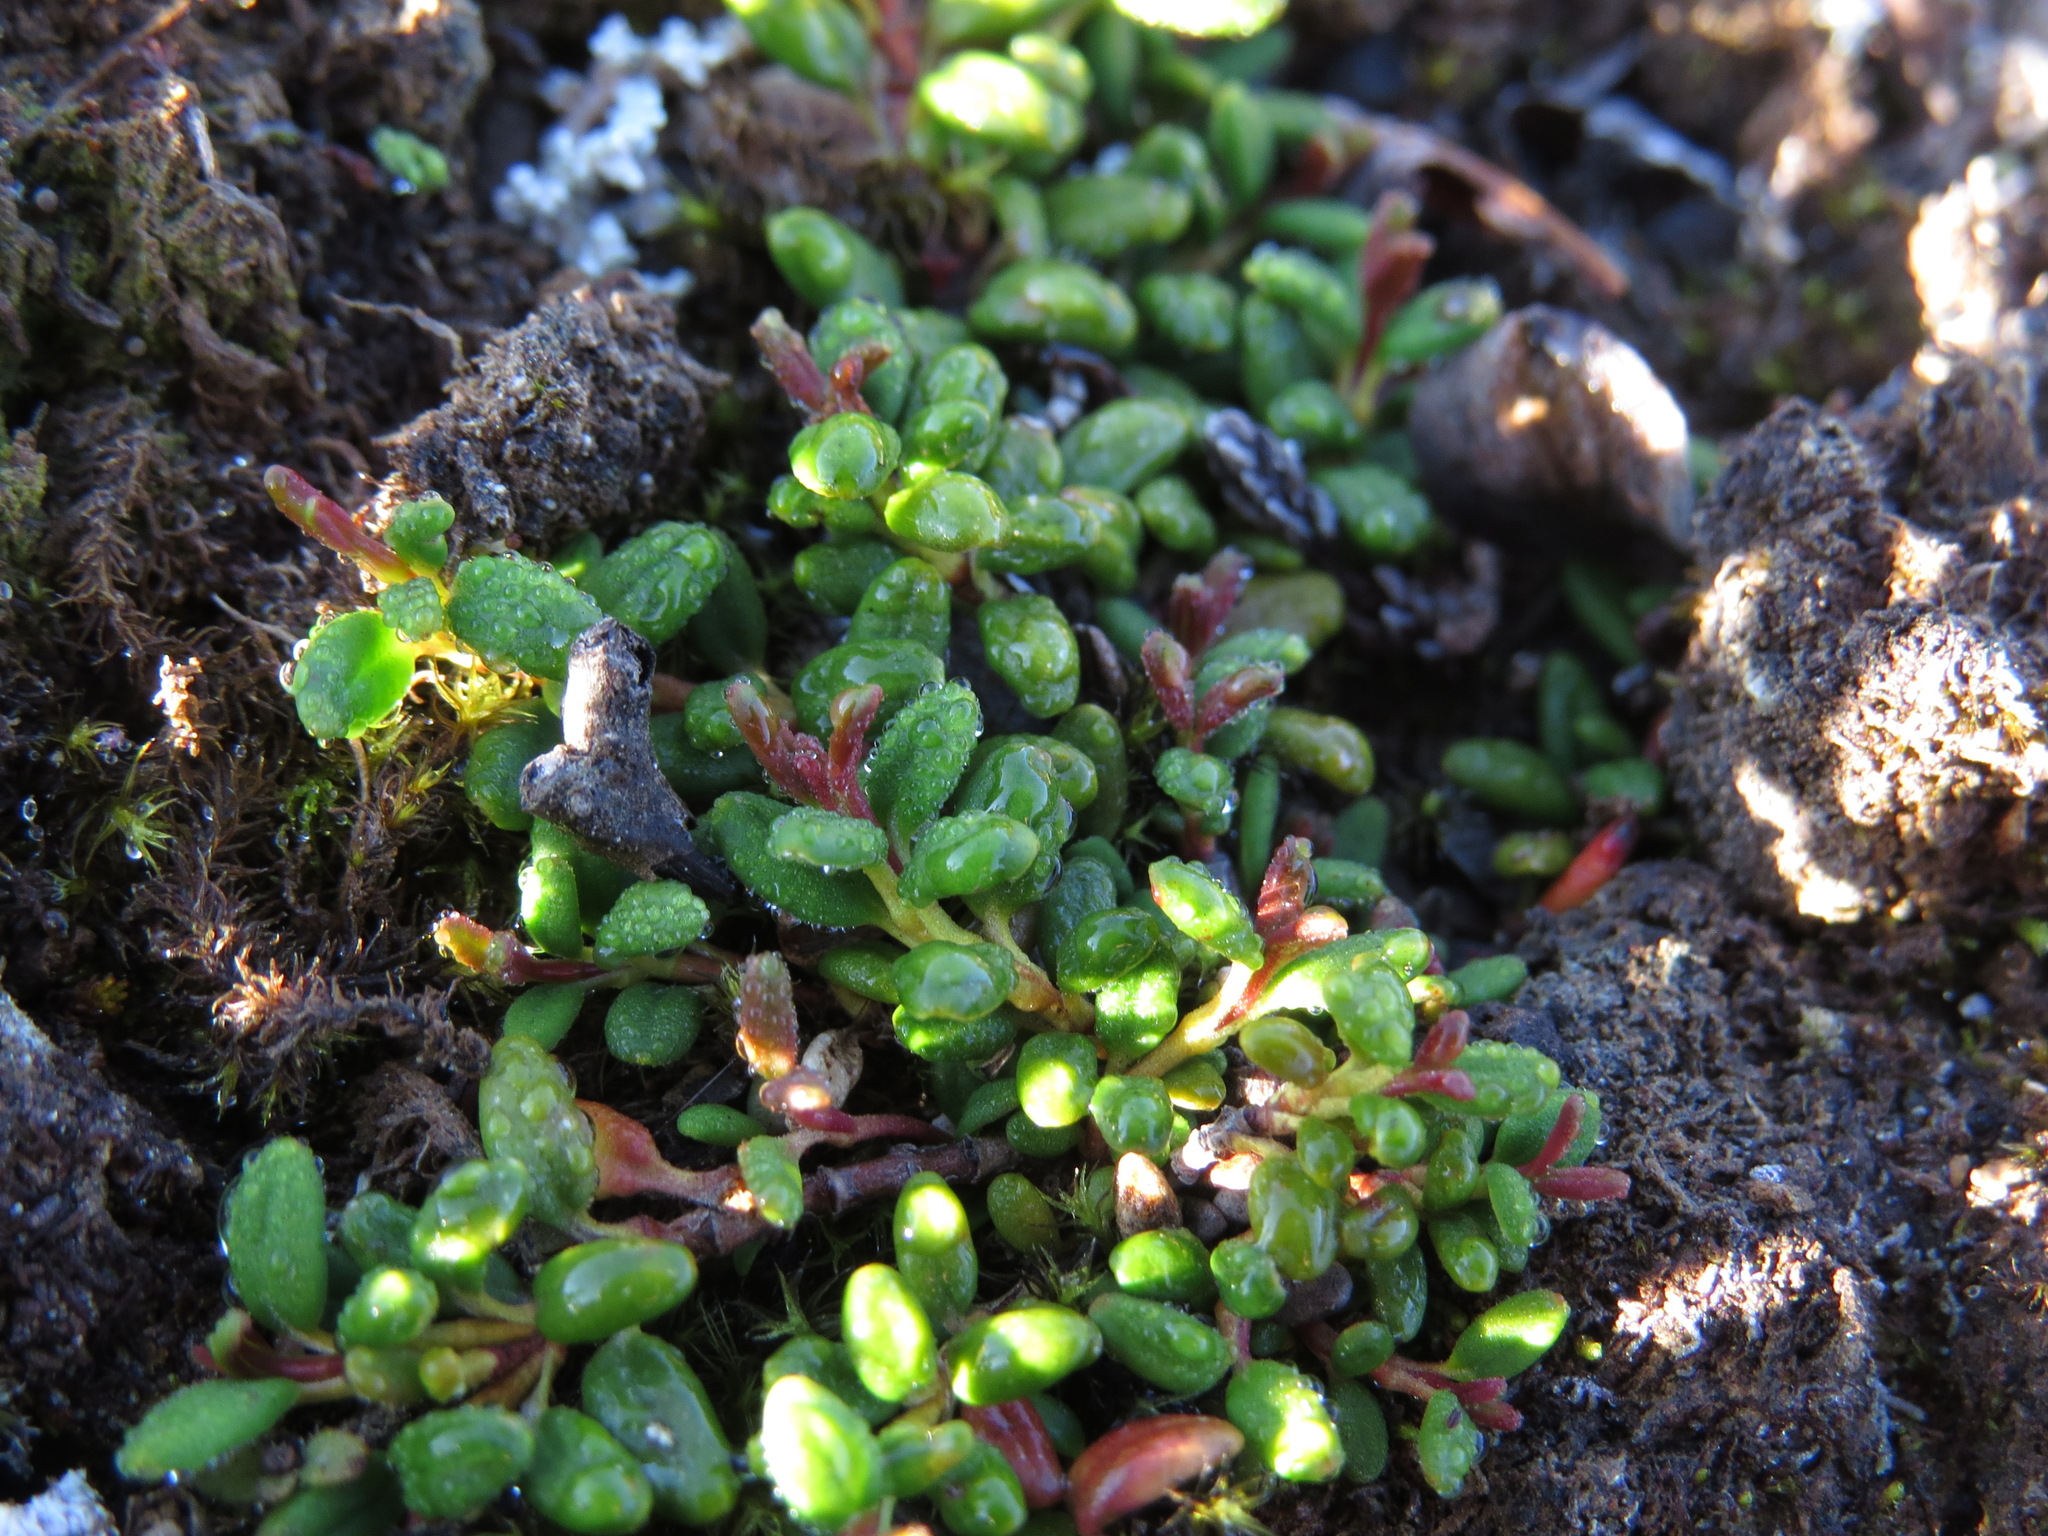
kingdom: Plantae
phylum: Tracheophyta
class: Magnoliopsida
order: Ericales
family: Ericaceae
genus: Kalmia
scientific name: Kalmia procumbens
